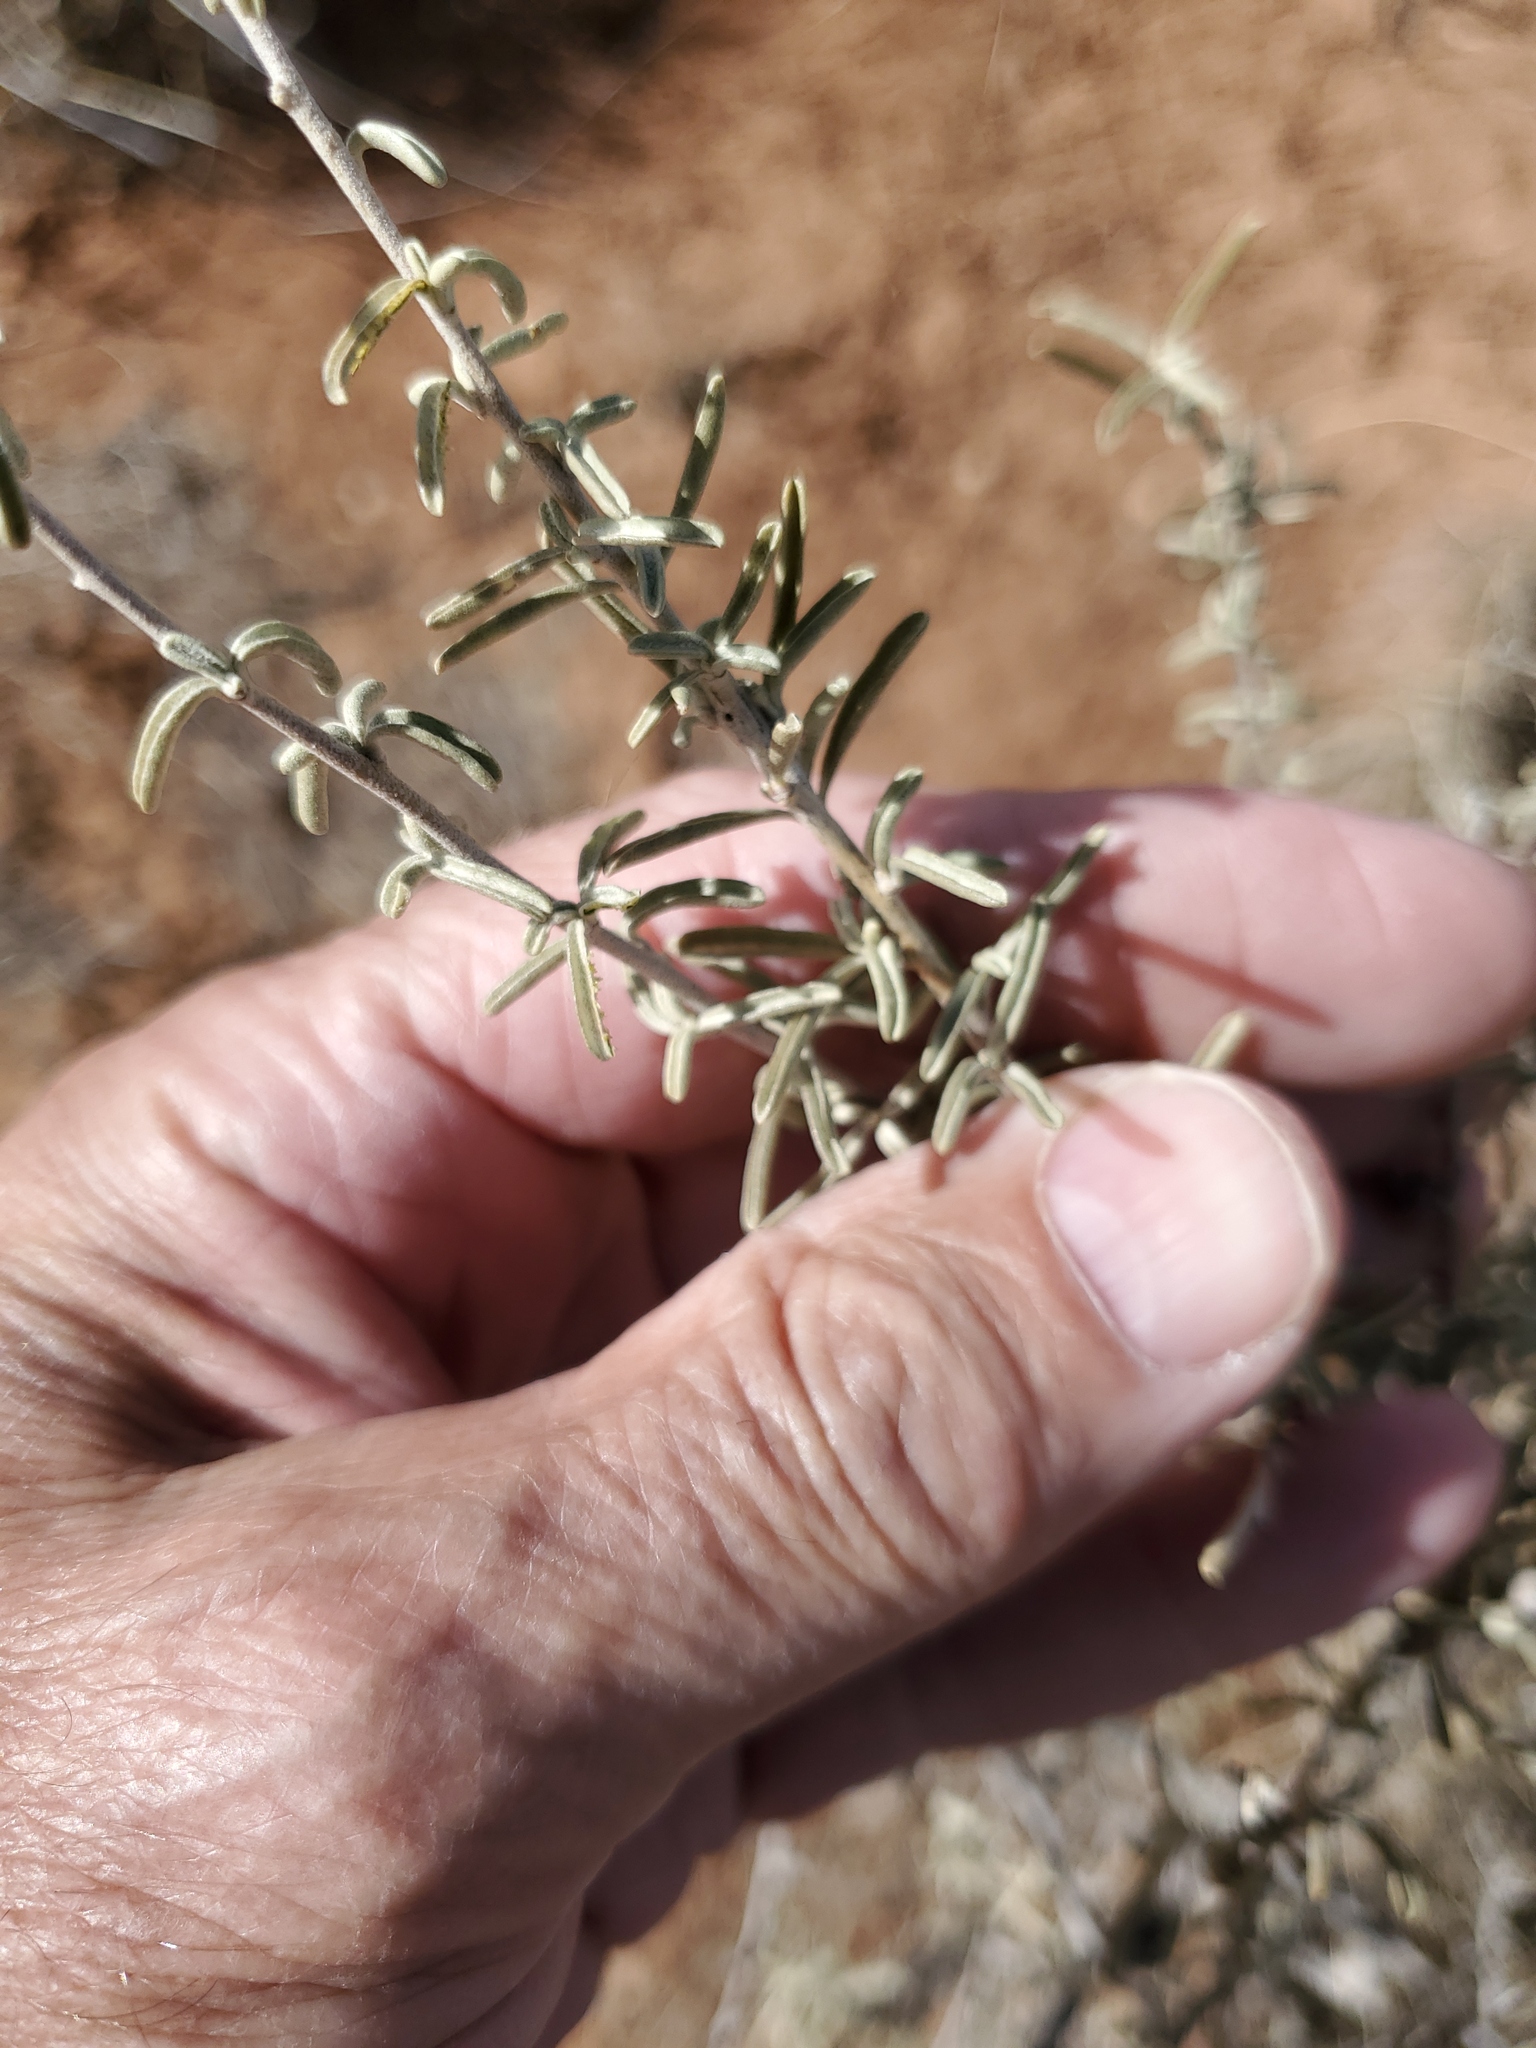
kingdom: Plantae
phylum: Tracheophyta
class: Magnoliopsida
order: Caryophyllales
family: Amaranthaceae
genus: Atriplex
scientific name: Atriplex canescens
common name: Four-wing saltbush
